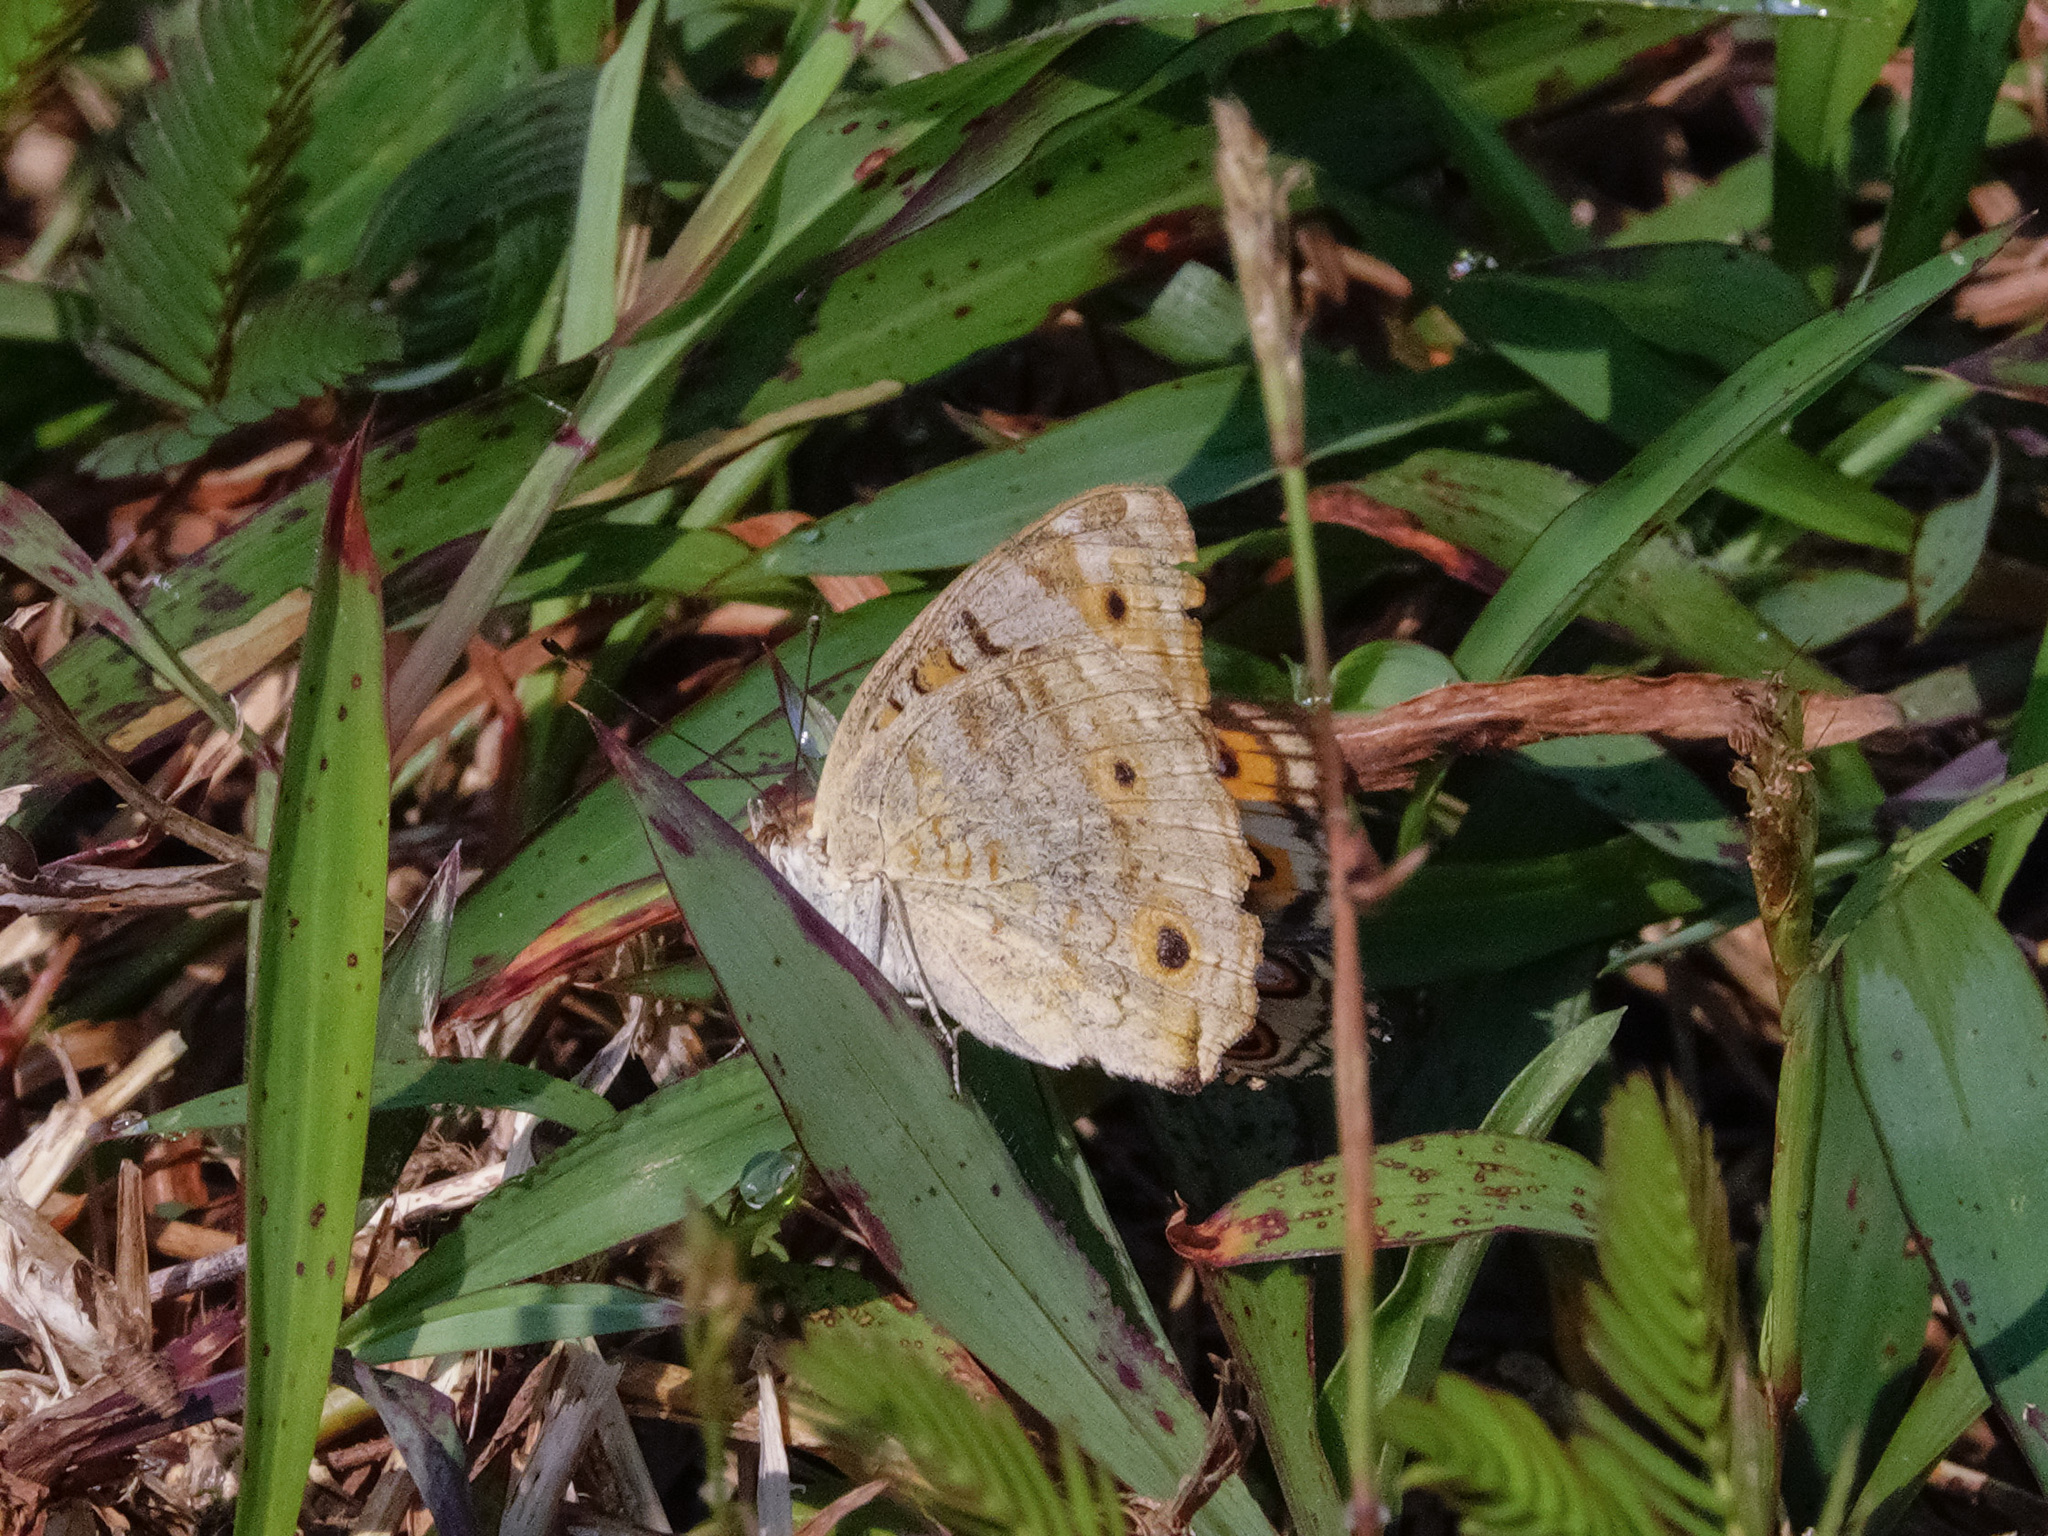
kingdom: Animalia
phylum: Arthropoda
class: Insecta
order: Lepidoptera
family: Nymphalidae
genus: Junonia
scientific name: Junonia orithya
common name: Blue pansy
